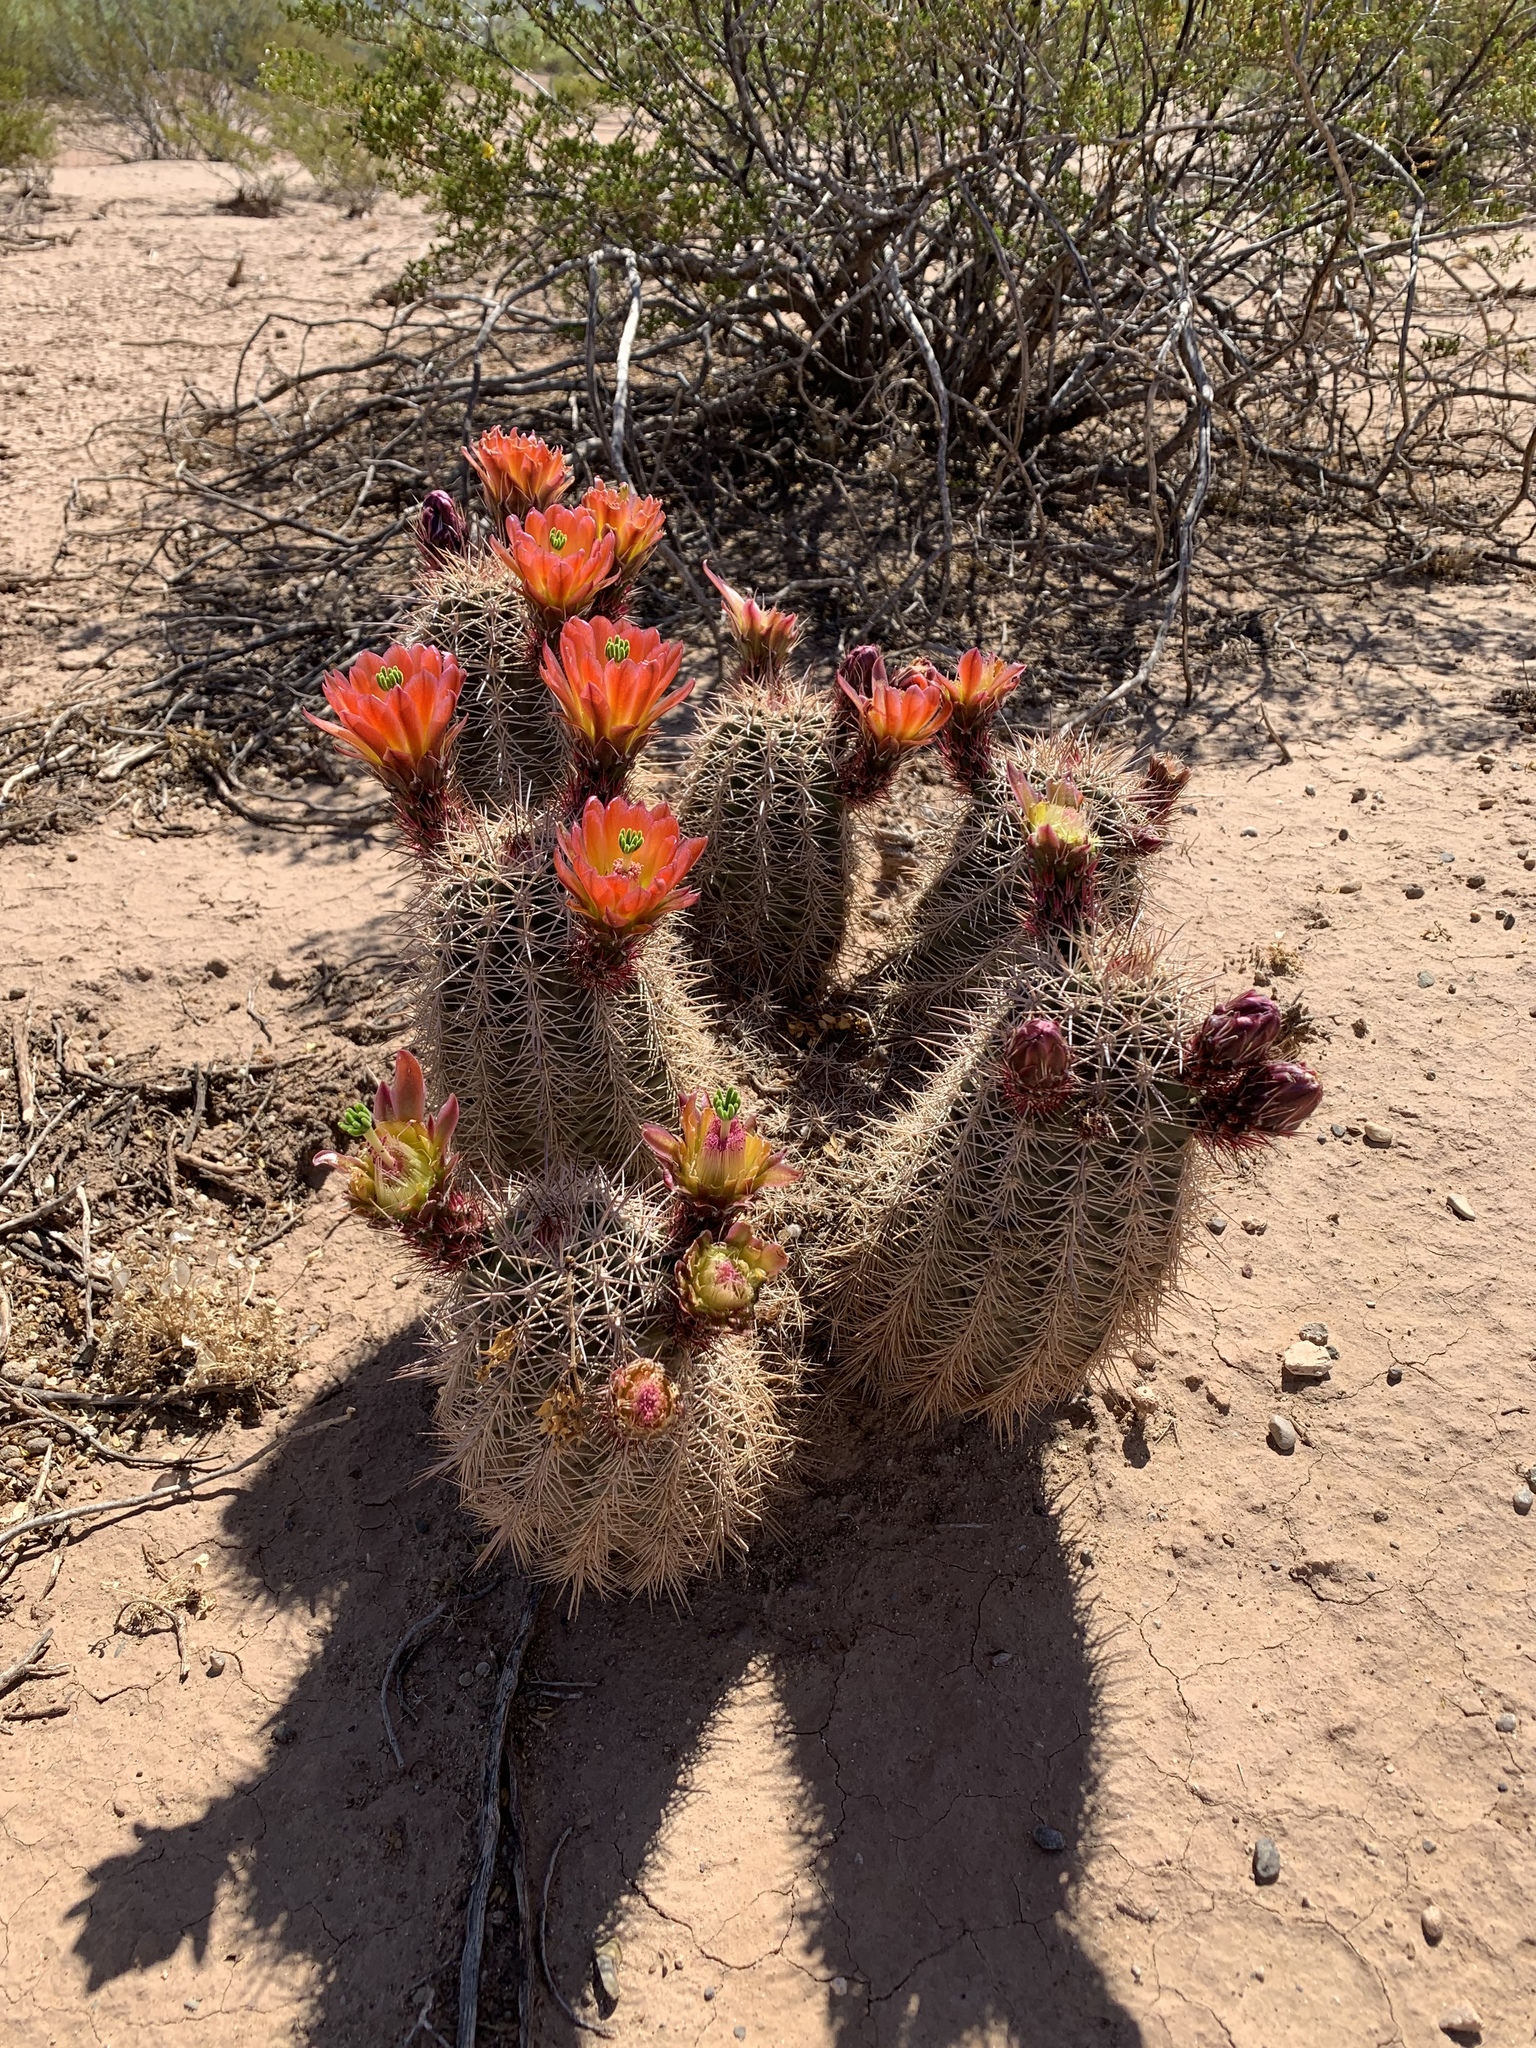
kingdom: Plantae
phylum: Tracheophyta
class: Magnoliopsida
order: Caryophyllales
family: Cactaceae
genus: Echinocereus
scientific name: Echinocereus roetteri
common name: Lloyd's hedgehog cactus
